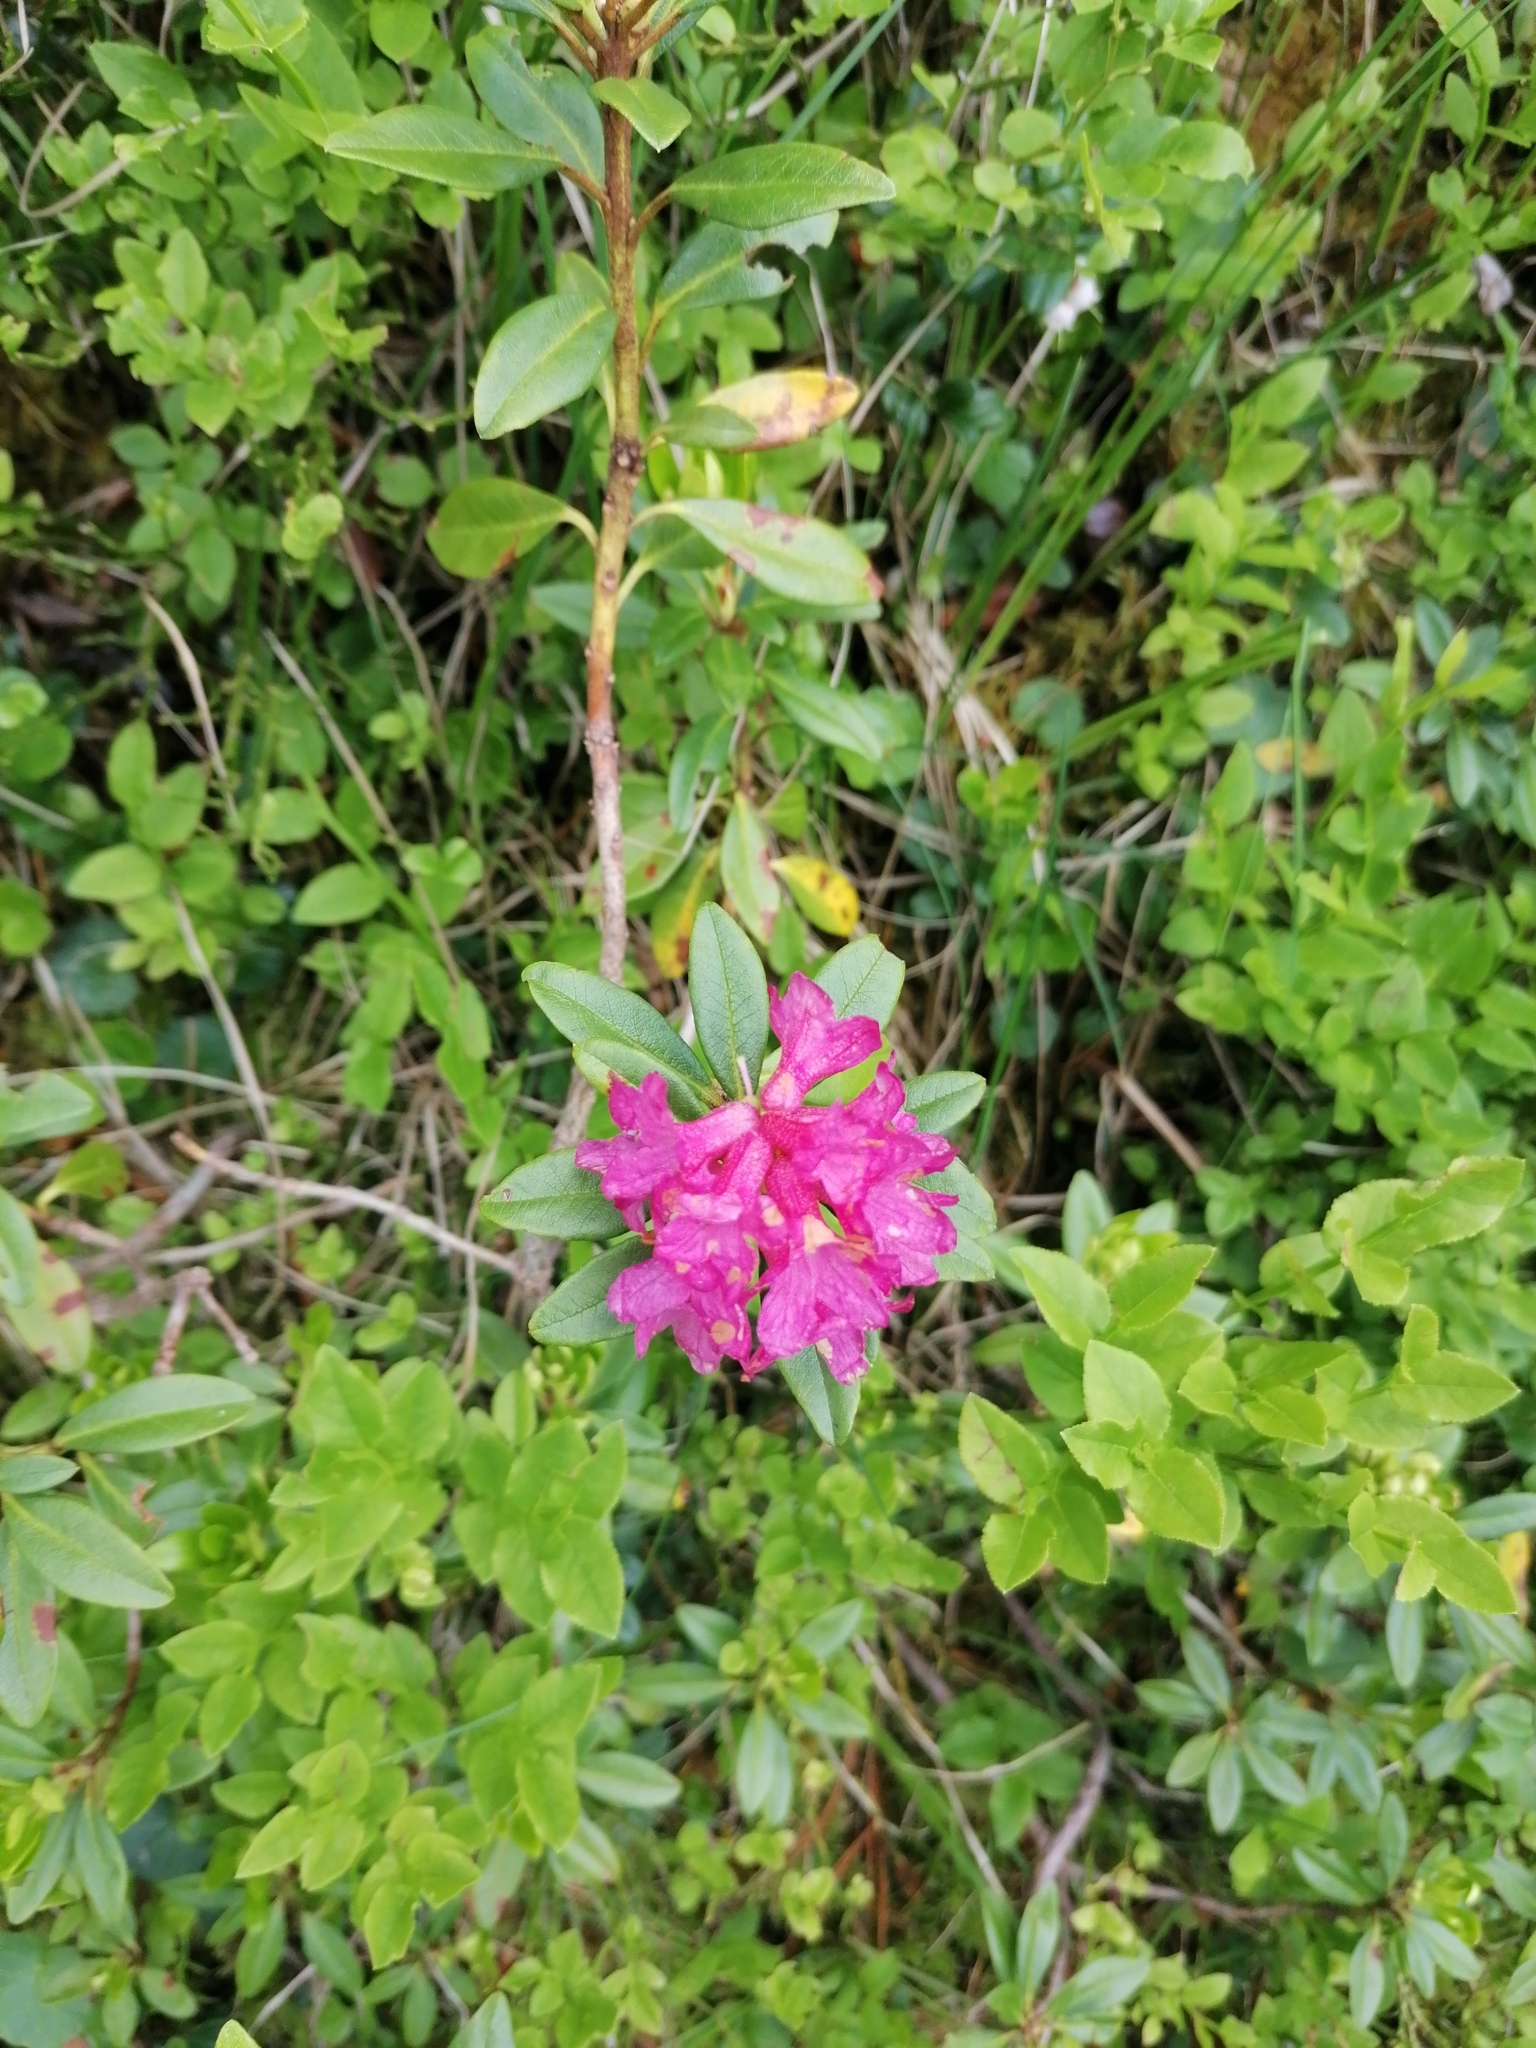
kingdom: Plantae
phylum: Tracheophyta
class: Magnoliopsida
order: Ericales
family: Ericaceae
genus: Rhododendron
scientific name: Rhododendron ferrugineum
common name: Alpenrose
